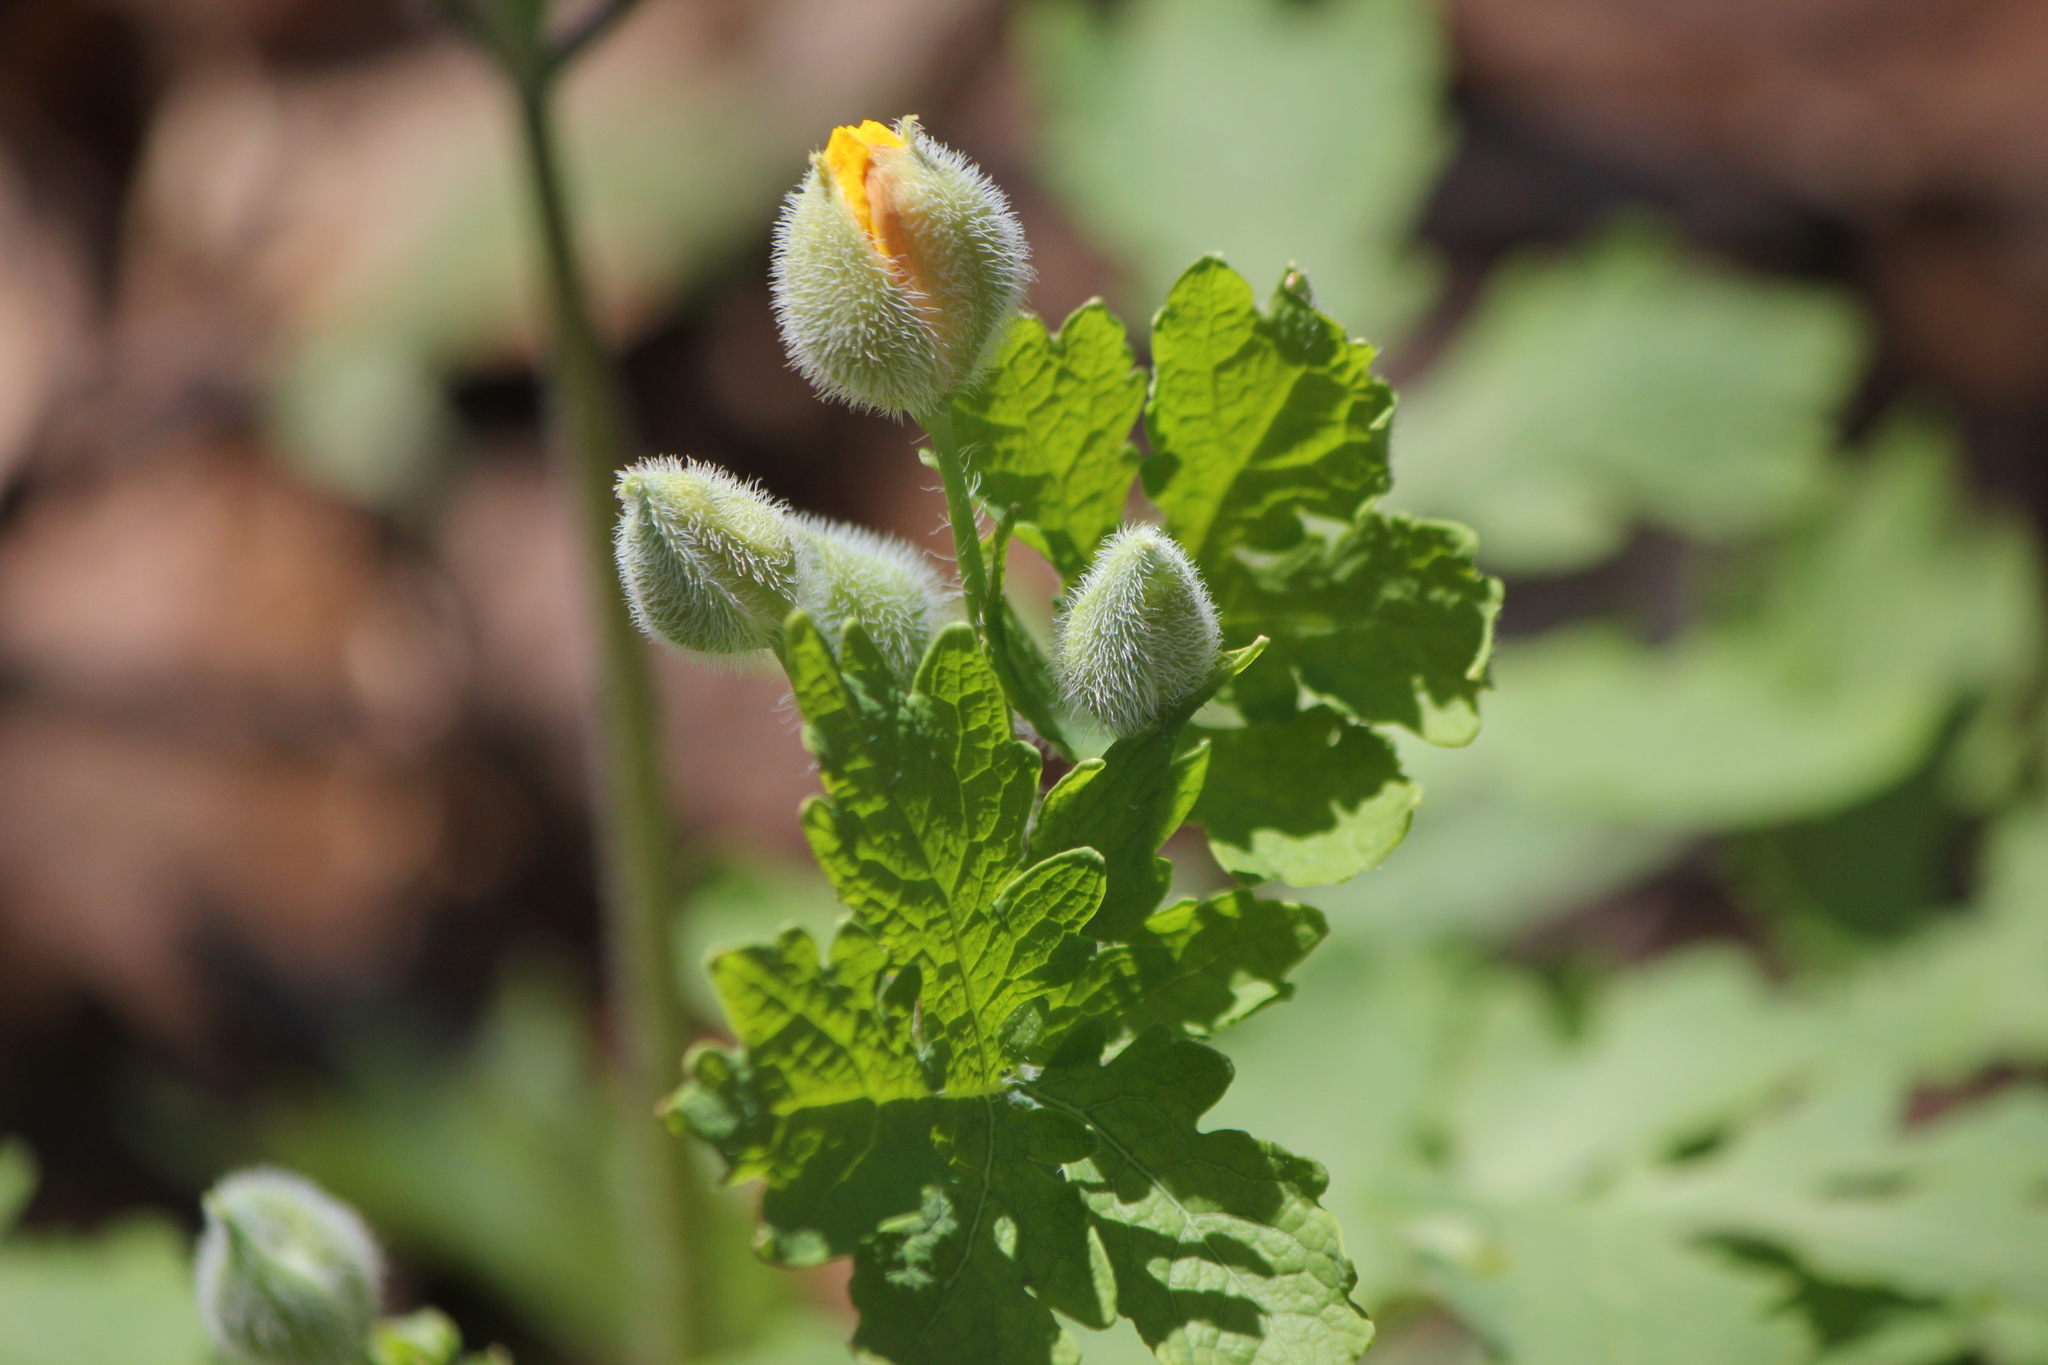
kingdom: Plantae
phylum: Tracheophyta
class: Magnoliopsida
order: Ranunculales
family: Papaveraceae
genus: Stylophorum
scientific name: Stylophorum diphyllum
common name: Celandine poppy
